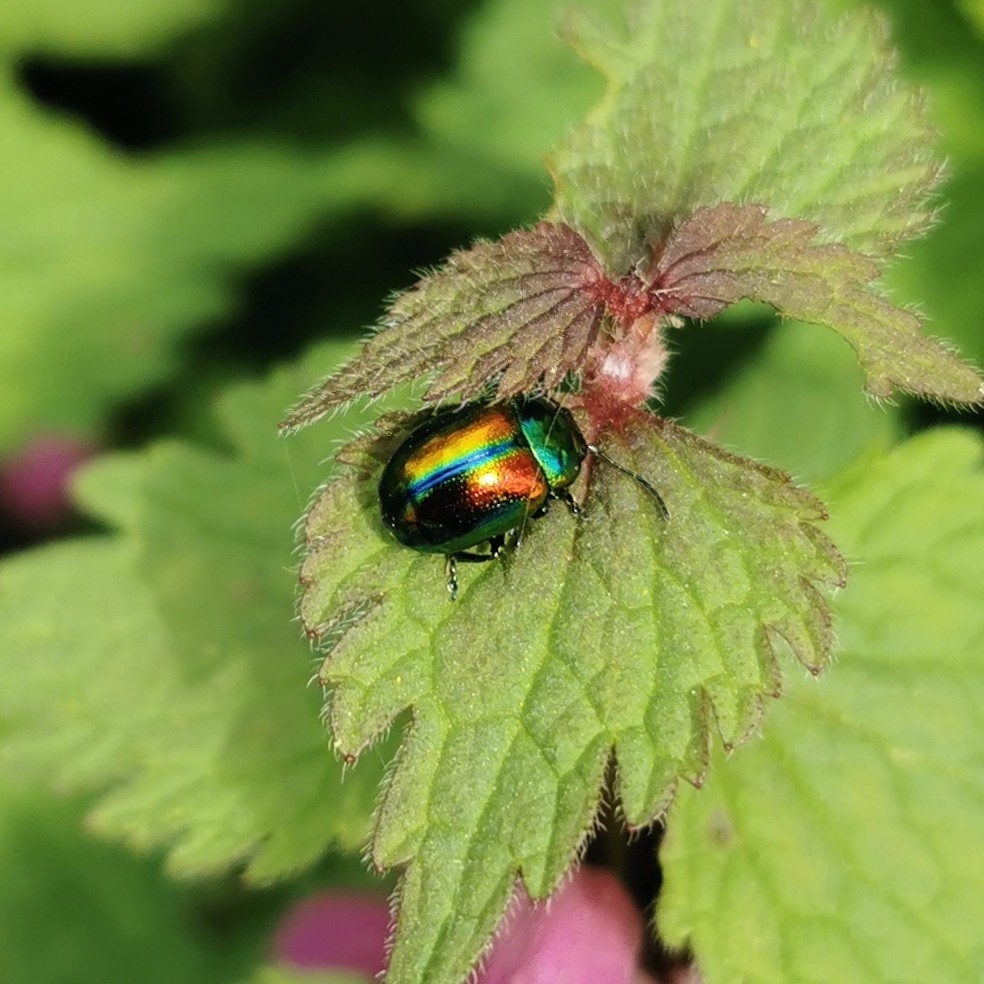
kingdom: Animalia
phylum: Arthropoda
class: Insecta
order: Coleoptera
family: Chrysomelidae
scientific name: Chrysomelidae
